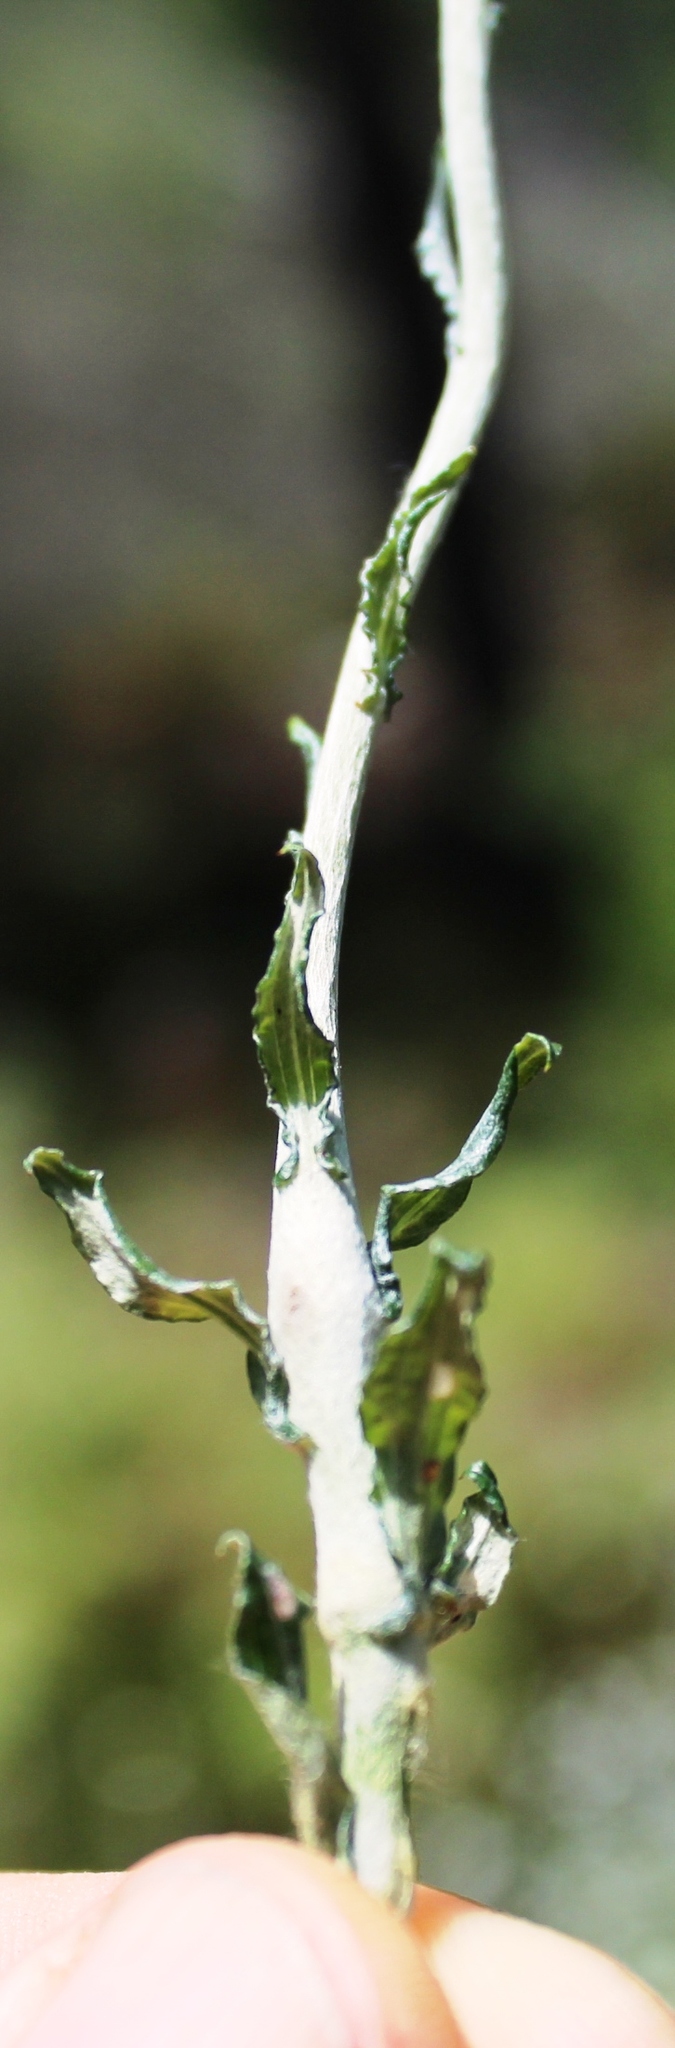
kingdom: Plantae
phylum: Tracheophyta
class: Magnoliopsida
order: Asterales
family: Asteraceae
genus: Helichrysum
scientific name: Helichrysum cymosum
